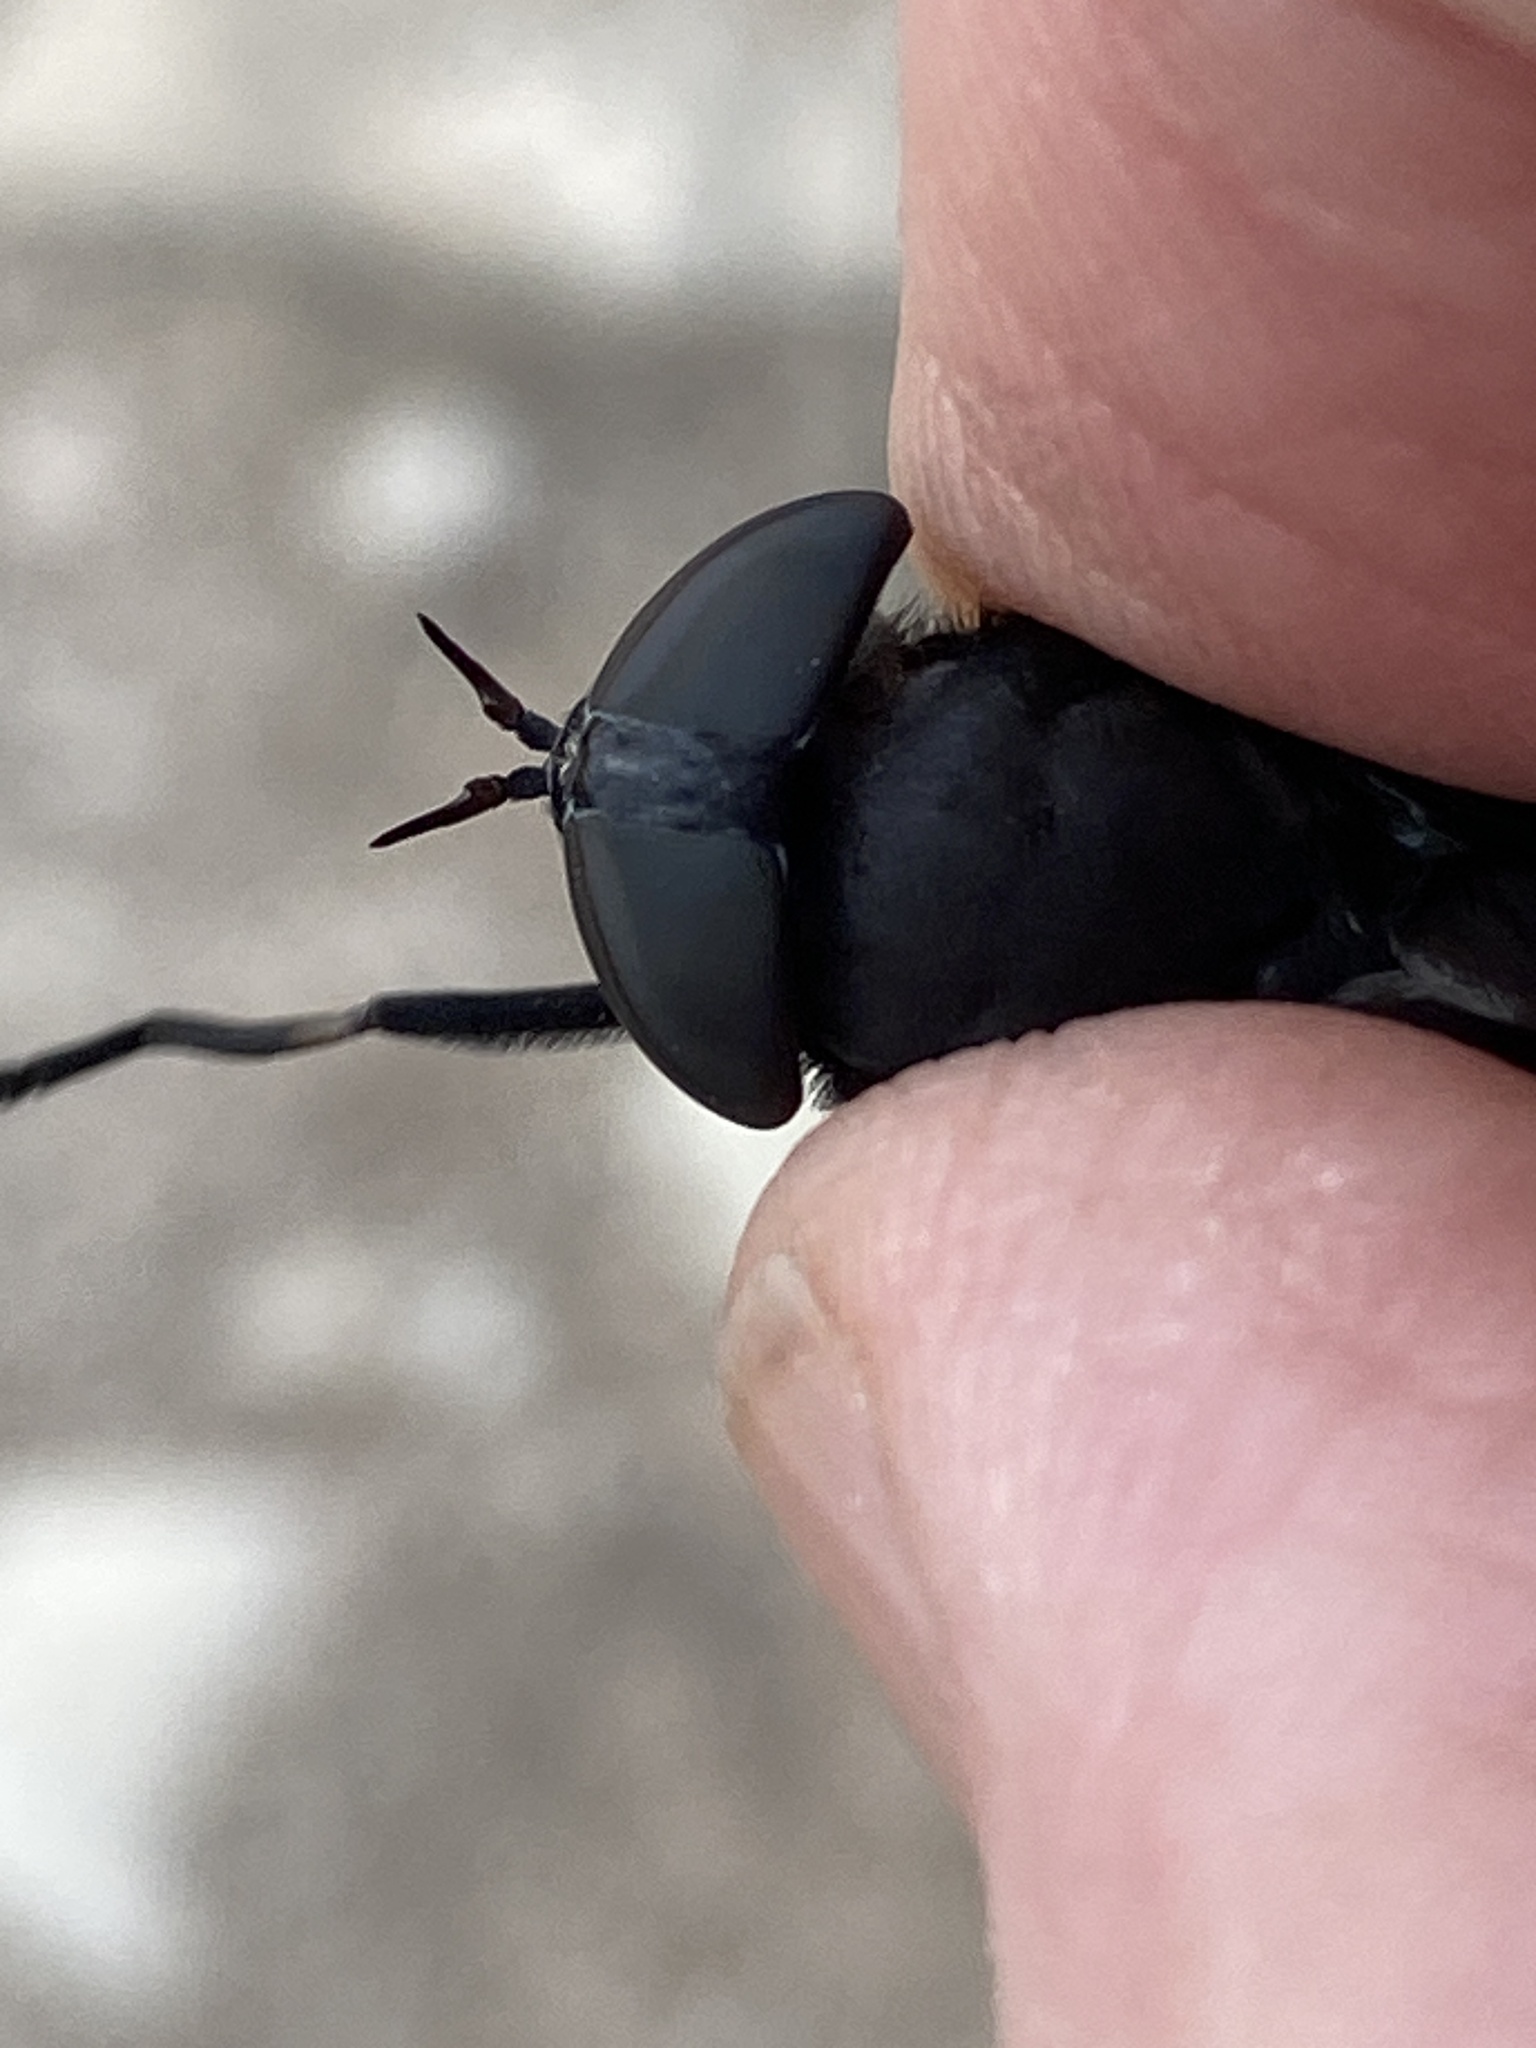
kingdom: Animalia
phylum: Arthropoda
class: Insecta
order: Diptera
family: Tabanidae
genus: Tabanus
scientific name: Tabanus atratus
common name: Black horse fly
